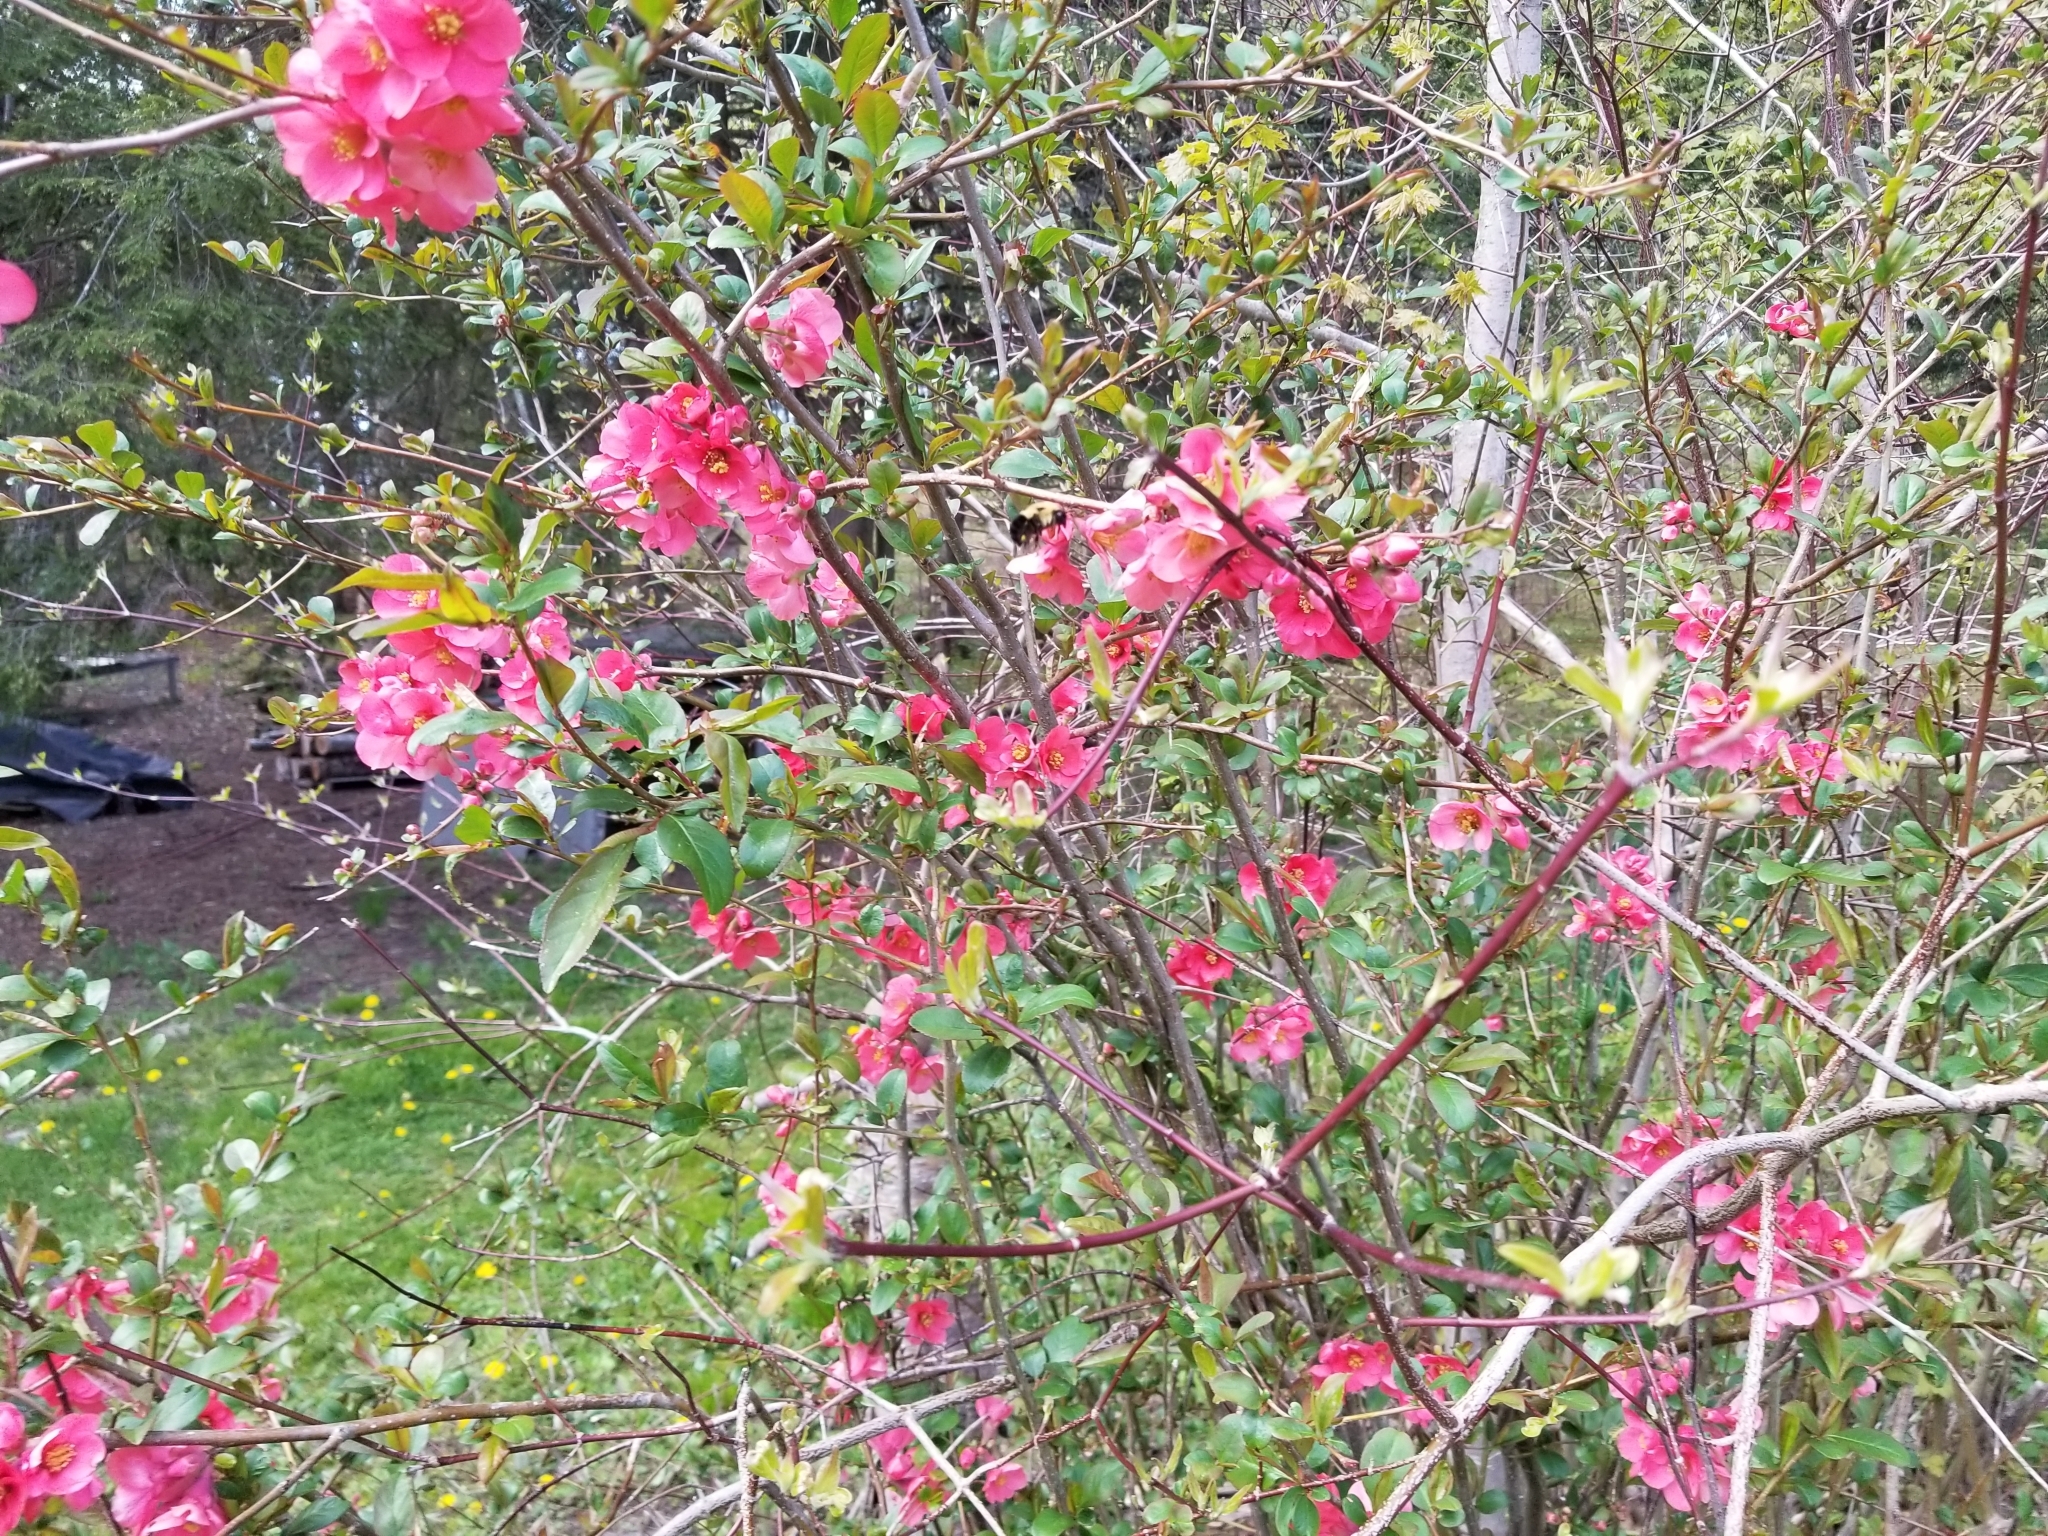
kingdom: Animalia
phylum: Arthropoda
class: Insecta
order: Hymenoptera
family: Apidae
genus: Bombus
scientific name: Bombus bimaculatus
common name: Two-spotted bumble bee
